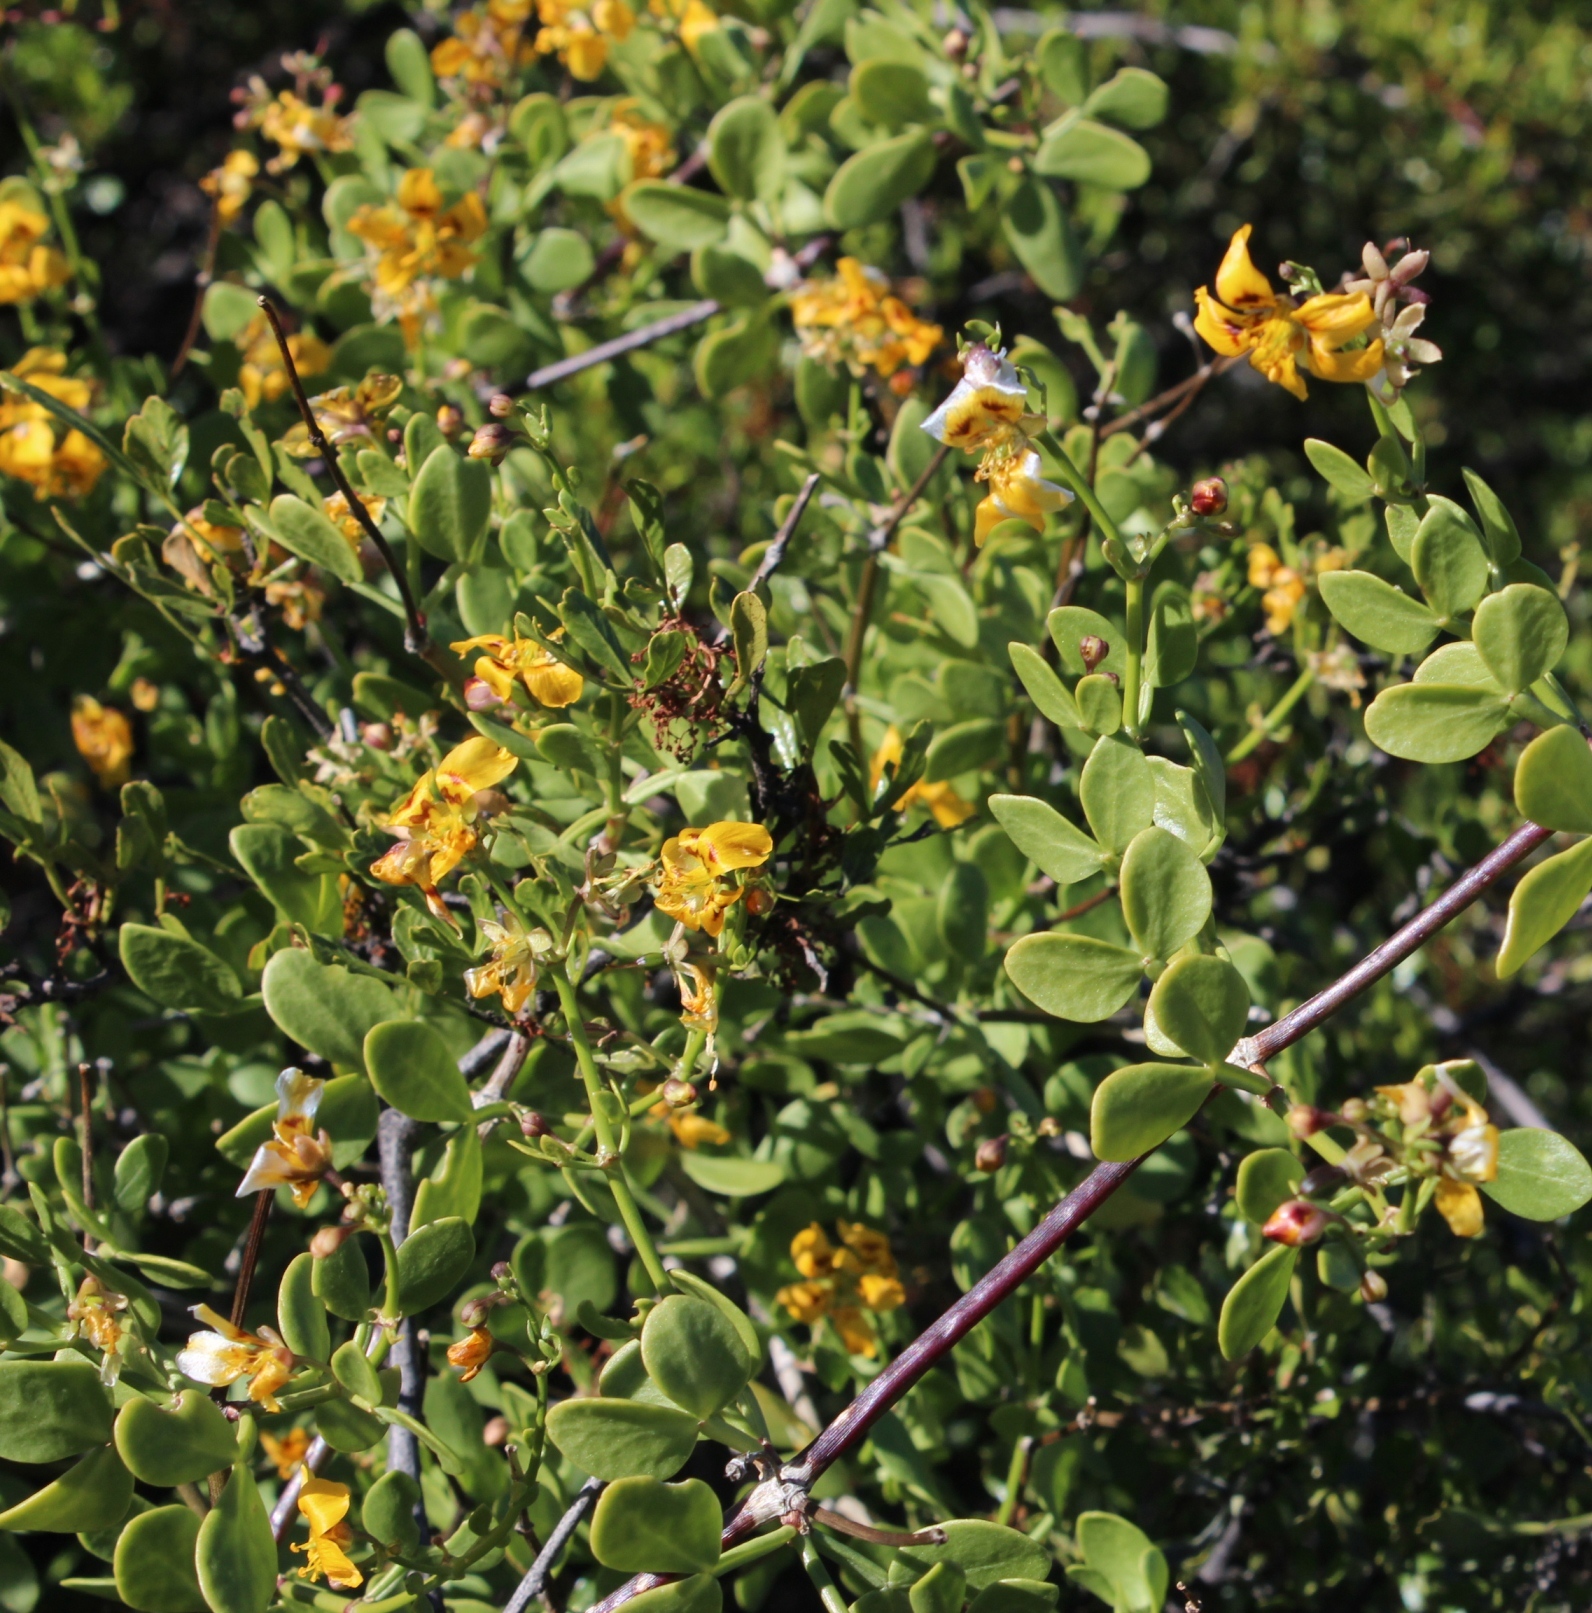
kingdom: Plantae
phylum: Tracheophyta
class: Magnoliopsida
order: Zygophyllales
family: Zygophyllaceae
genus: Roepera
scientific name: Roepera foetida
